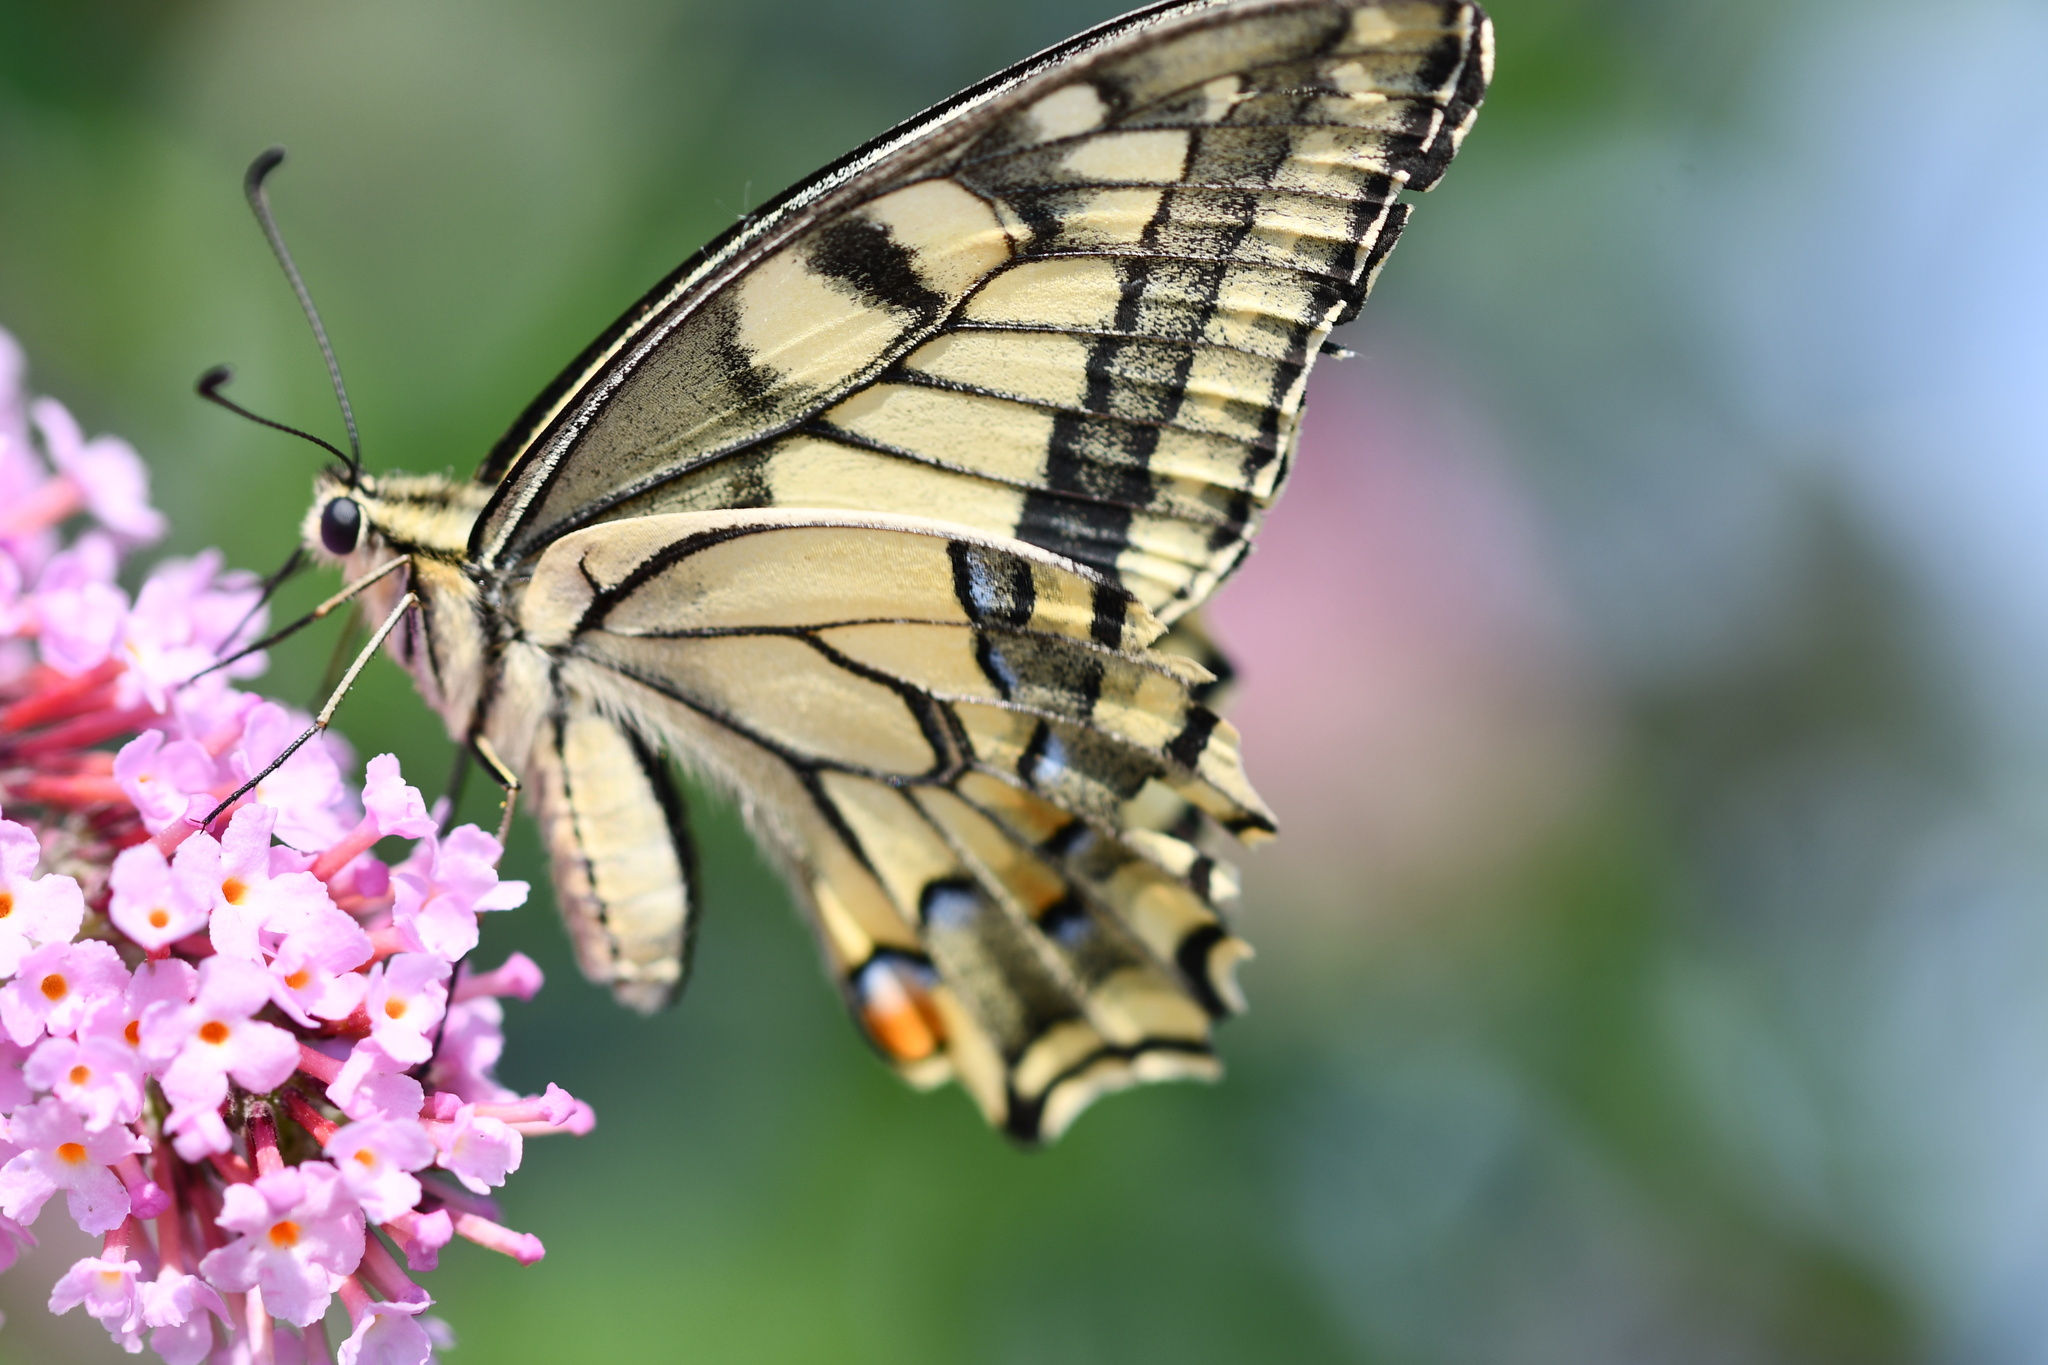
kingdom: Animalia
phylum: Arthropoda
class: Insecta
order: Lepidoptera
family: Papilionidae
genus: Papilio
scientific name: Papilio machaon
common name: Swallowtail
